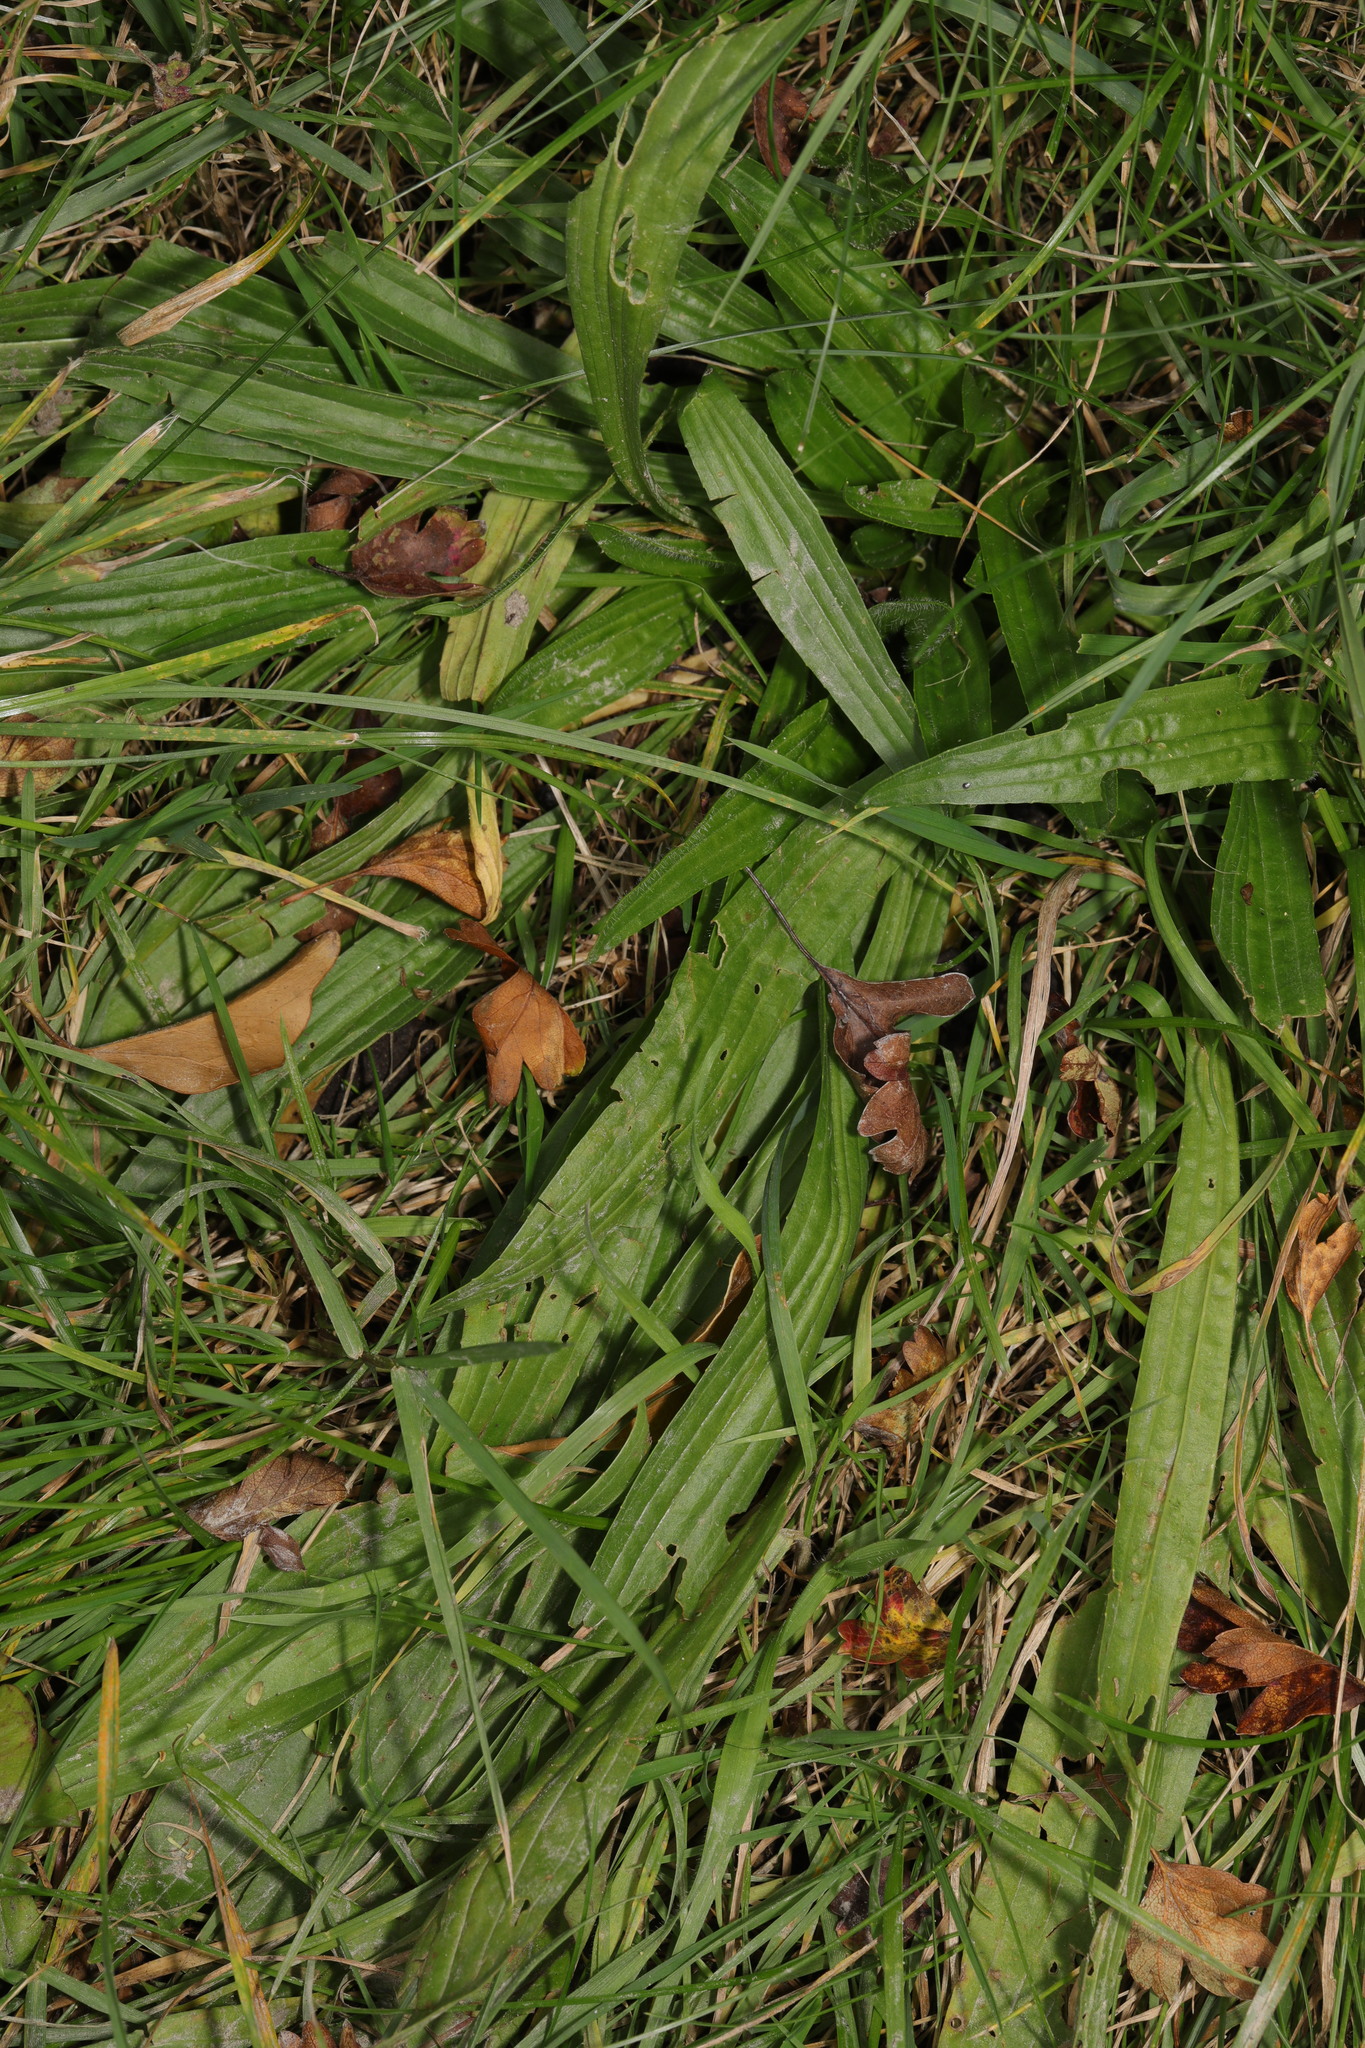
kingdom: Plantae
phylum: Tracheophyta
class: Magnoliopsida
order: Lamiales
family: Plantaginaceae
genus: Plantago
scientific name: Plantago lanceolata
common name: Ribwort plantain
